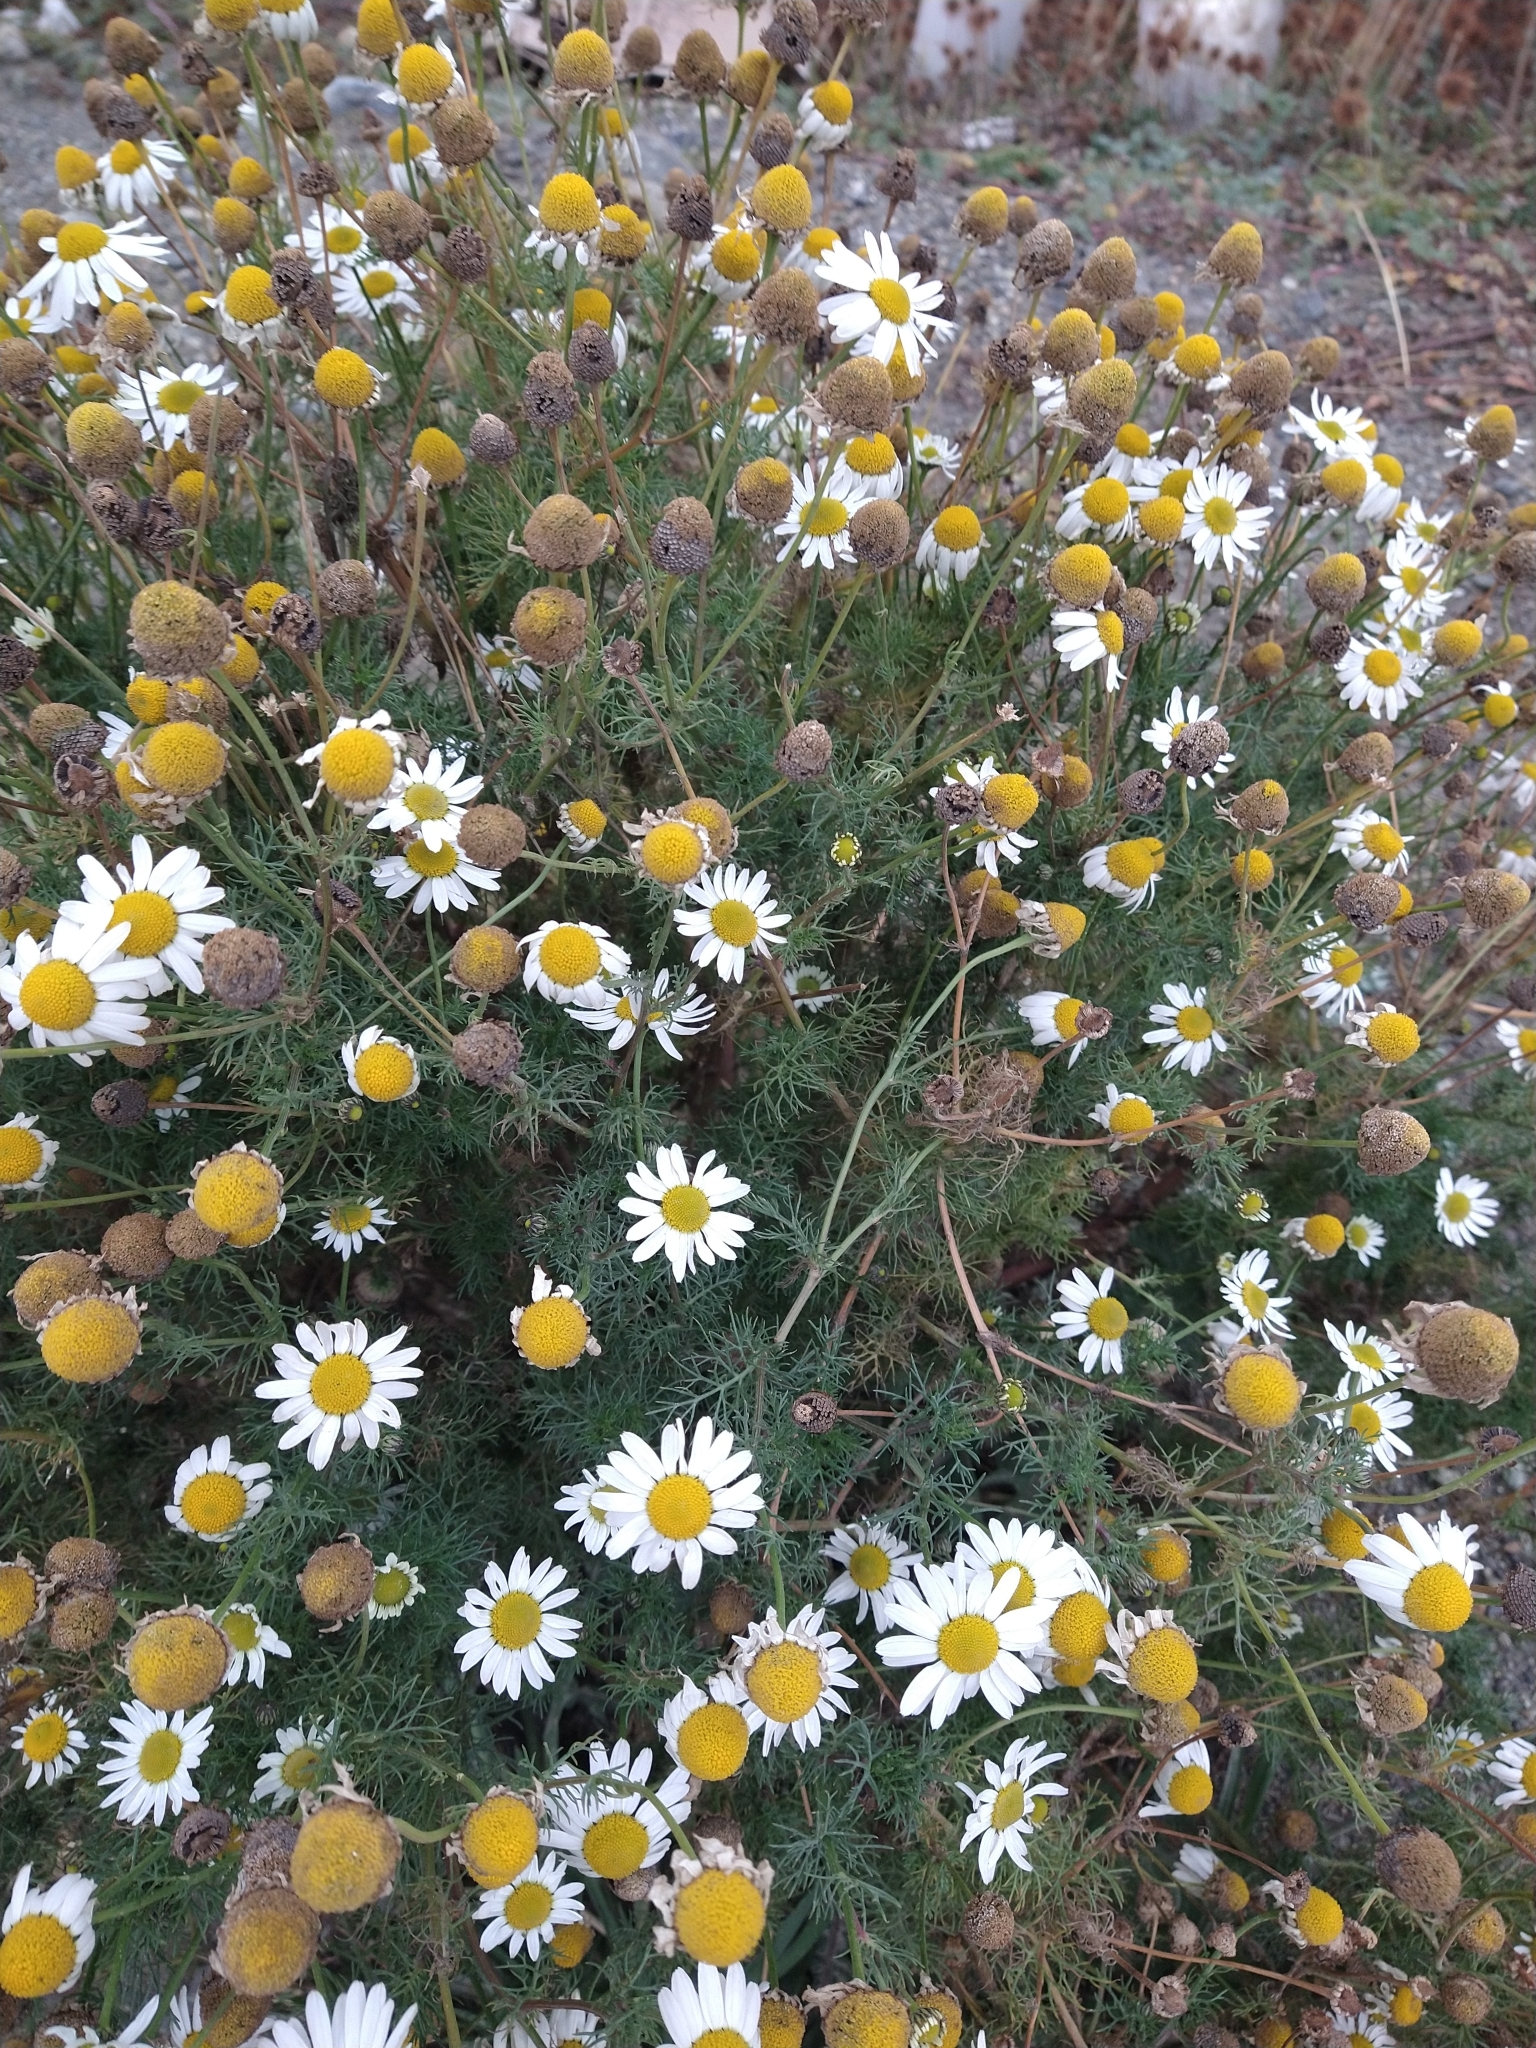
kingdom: Plantae
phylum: Tracheophyta
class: Magnoliopsida
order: Asterales
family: Asteraceae
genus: Tripleurospermum
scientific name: Tripleurospermum inodorum
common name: Scentless mayweed
